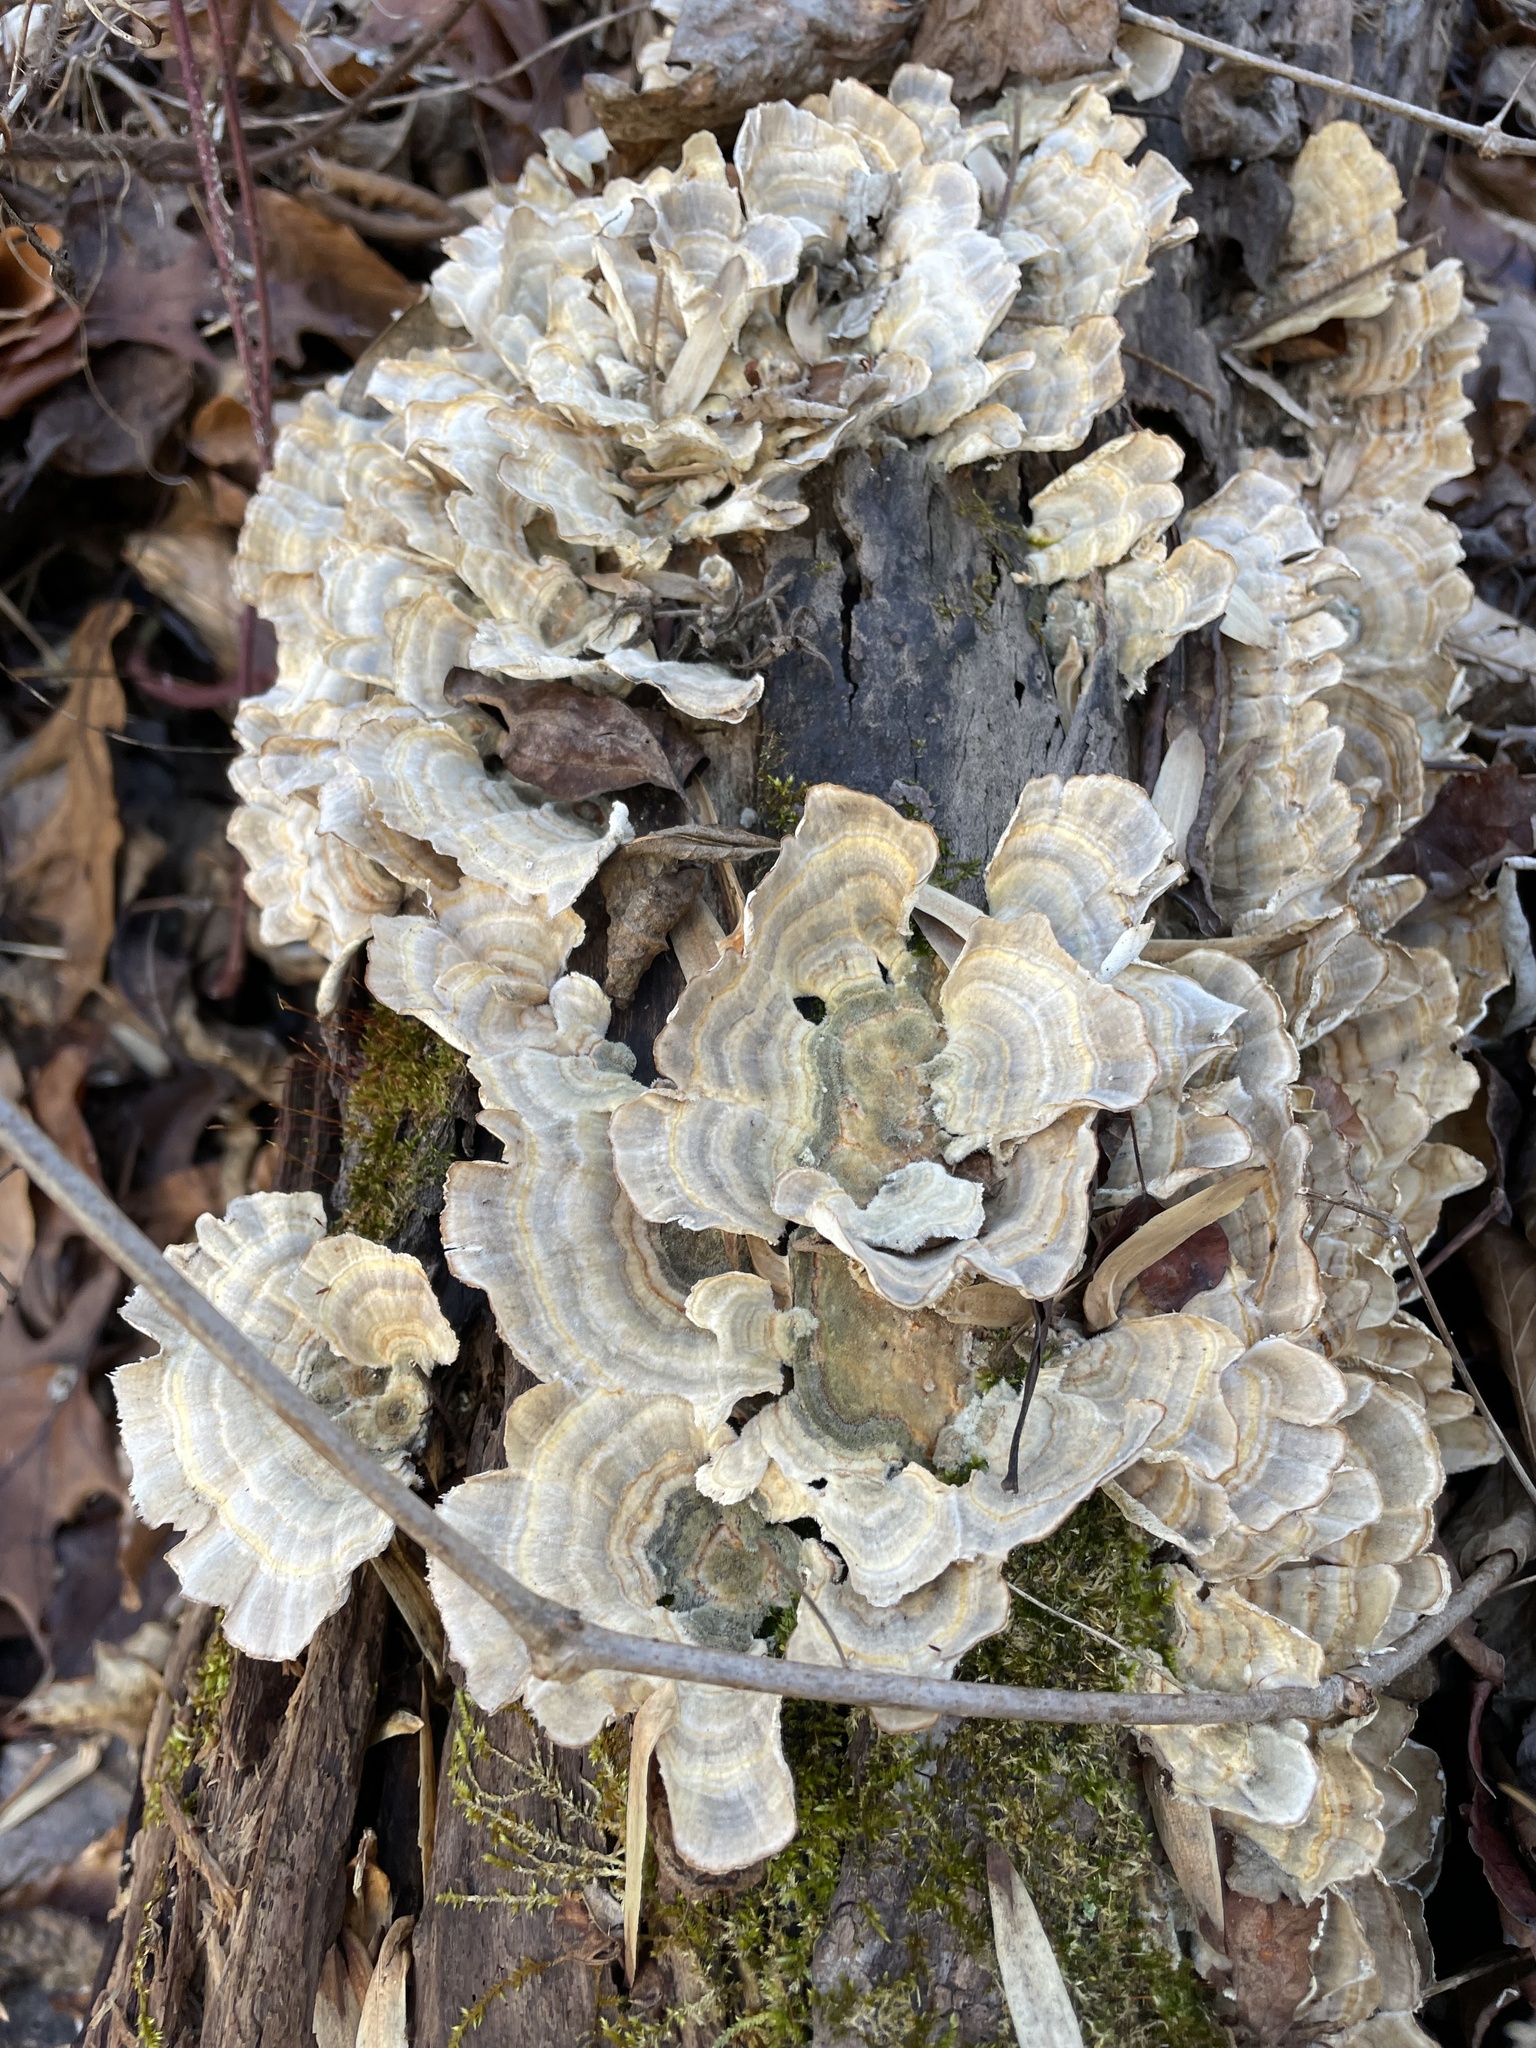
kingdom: Fungi
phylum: Basidiomycota
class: Agaricomycetes
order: Polyporales
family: Polyporaceae
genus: Trametes
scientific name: Trametes versicolor
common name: Turkeytail
